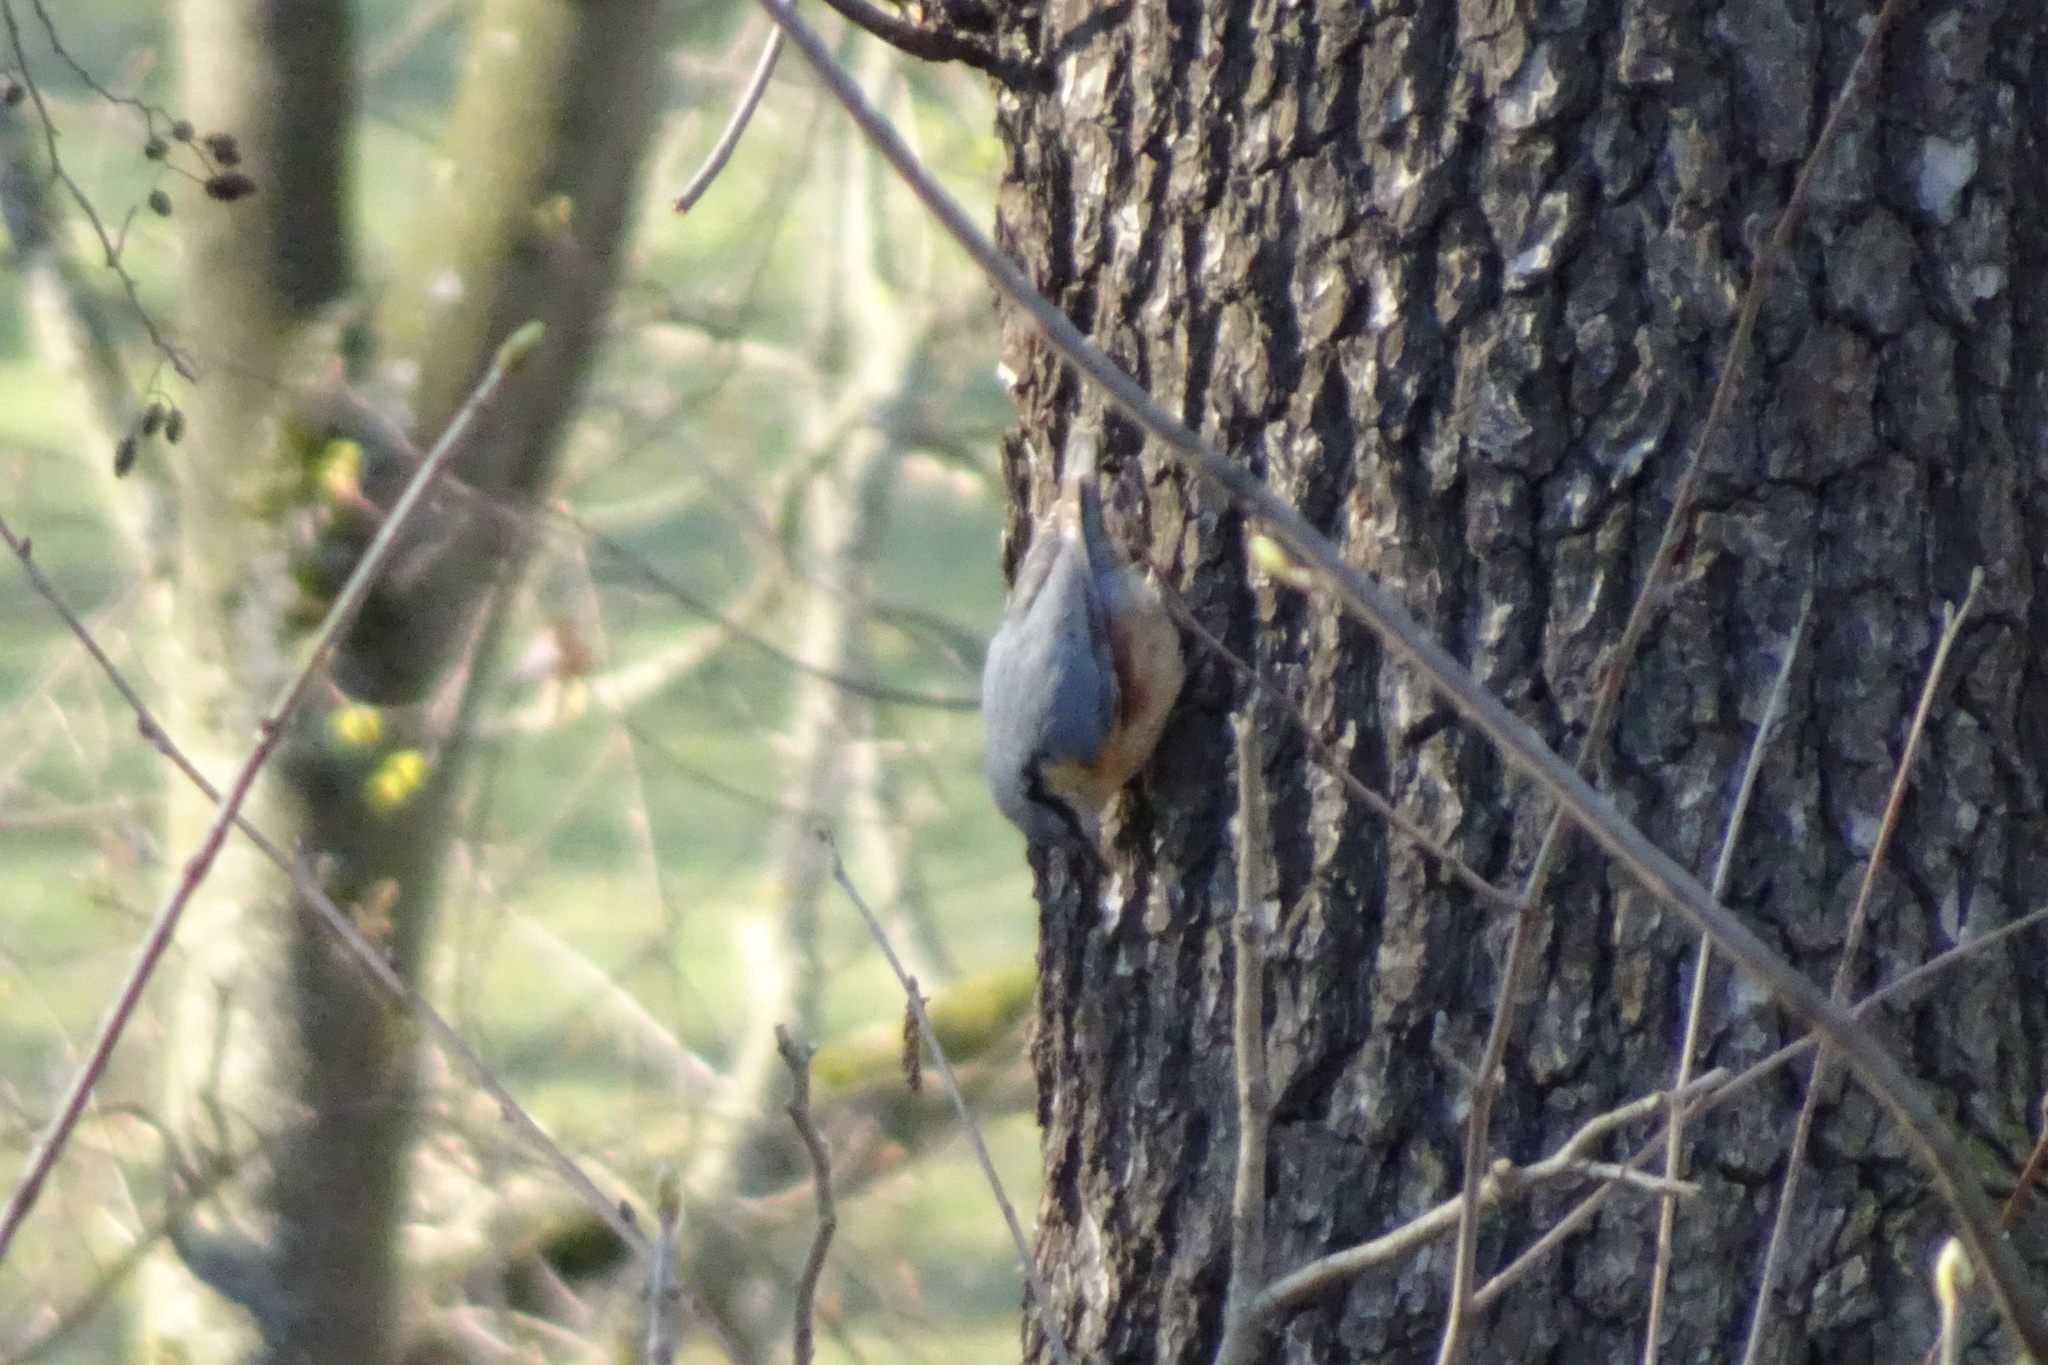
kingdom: Animalia
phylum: Chordata
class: Aves
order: Passeriformes
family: Sittidae
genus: Sitta
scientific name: Sitta europaea
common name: Eurasian nuthatch
